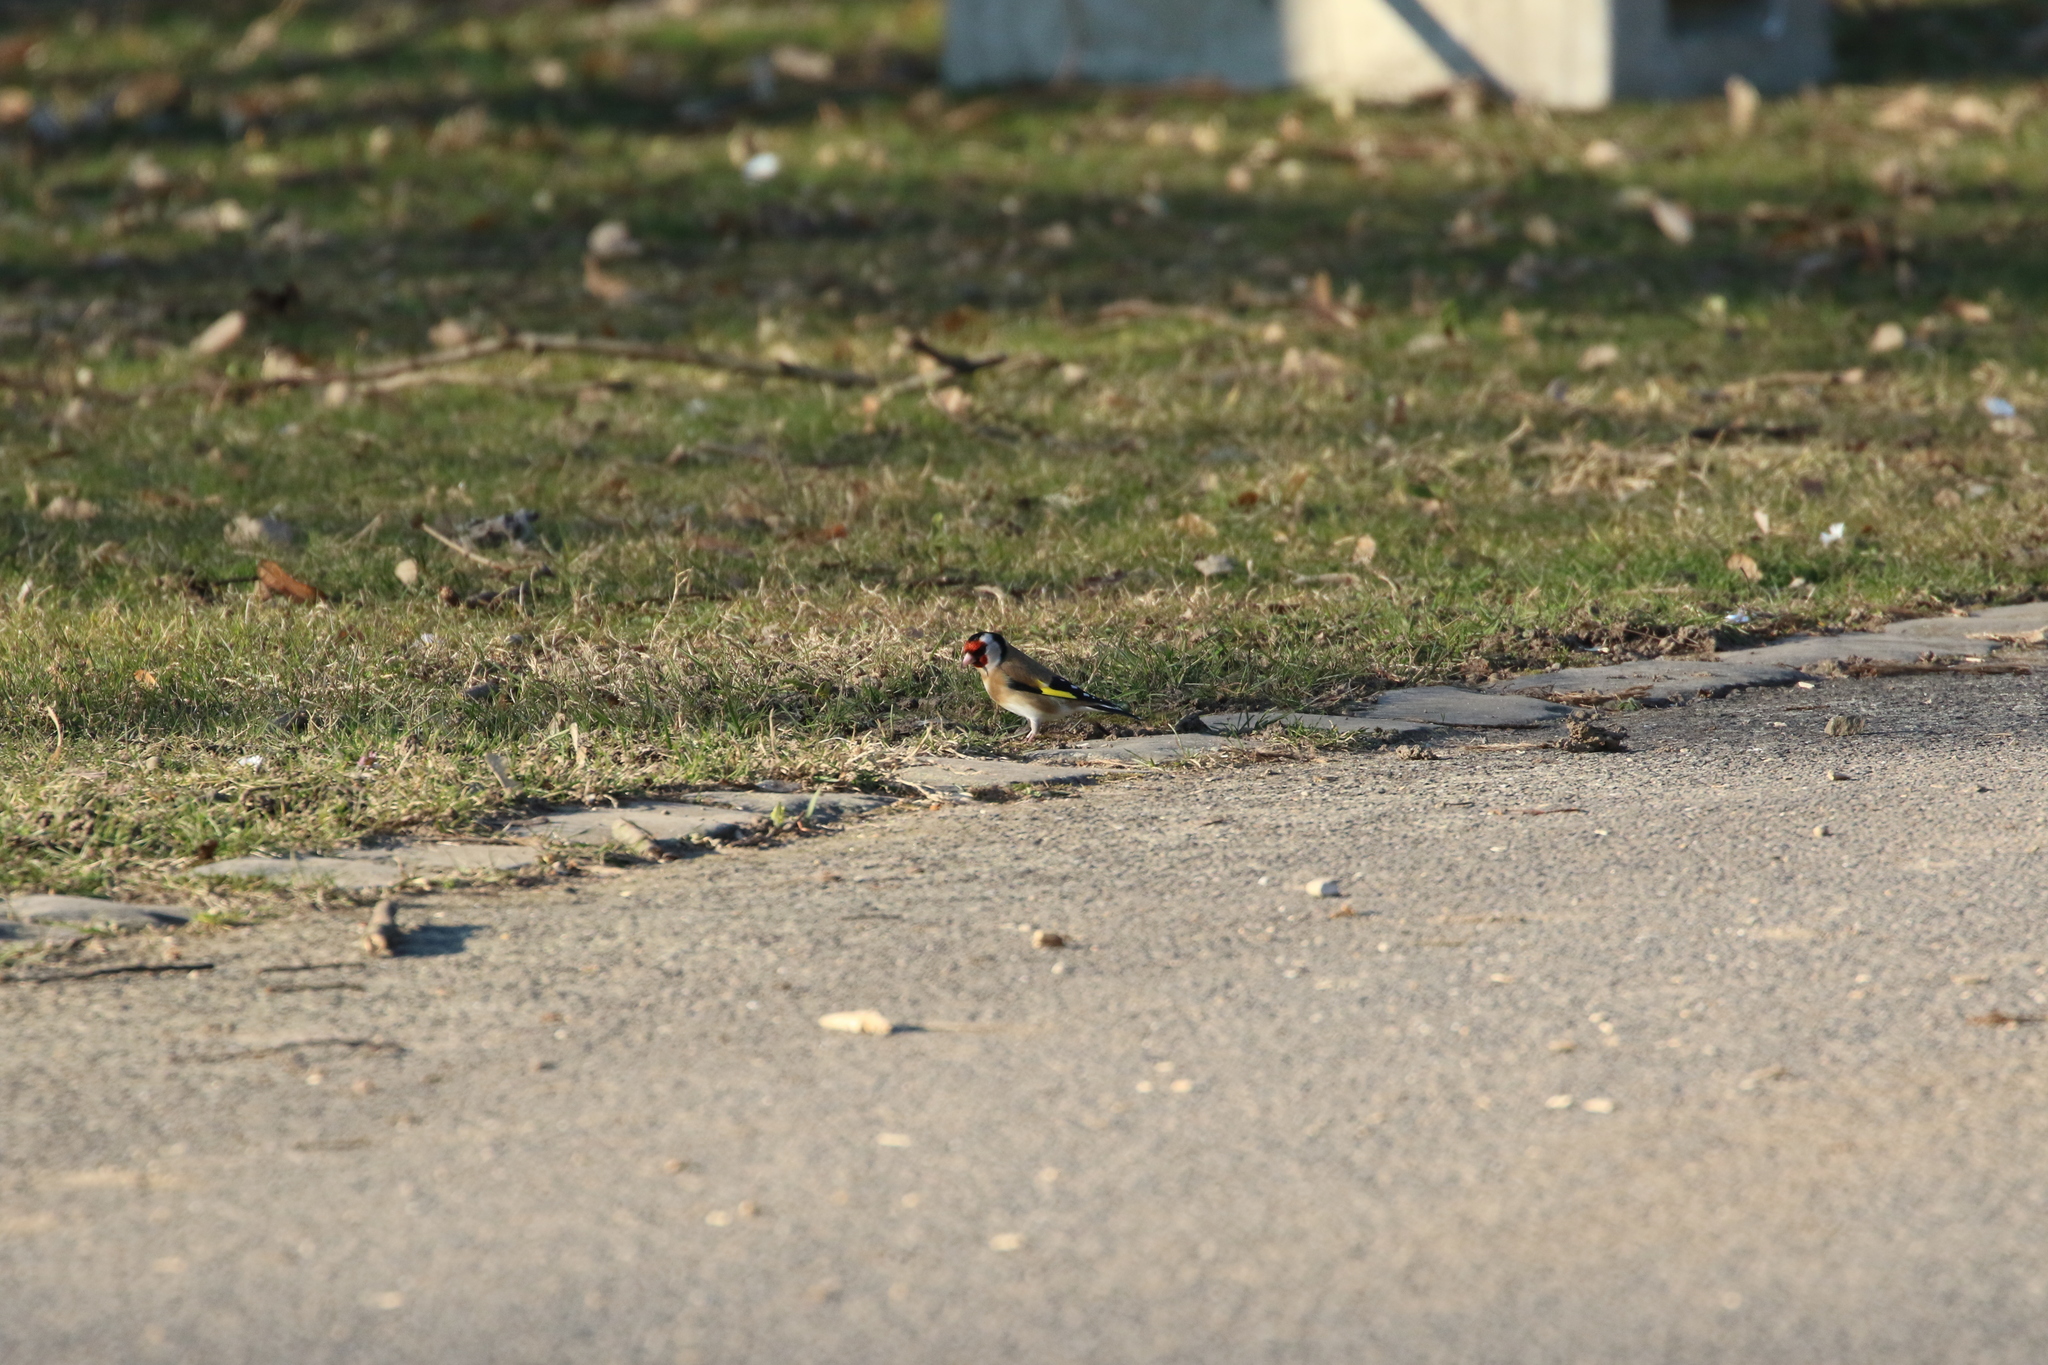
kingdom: Animalia
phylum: Chordata
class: Aves
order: Passeriformes
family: Fringillidae
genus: Carduelis
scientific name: Carduelis carduelis
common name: European goldfinch
